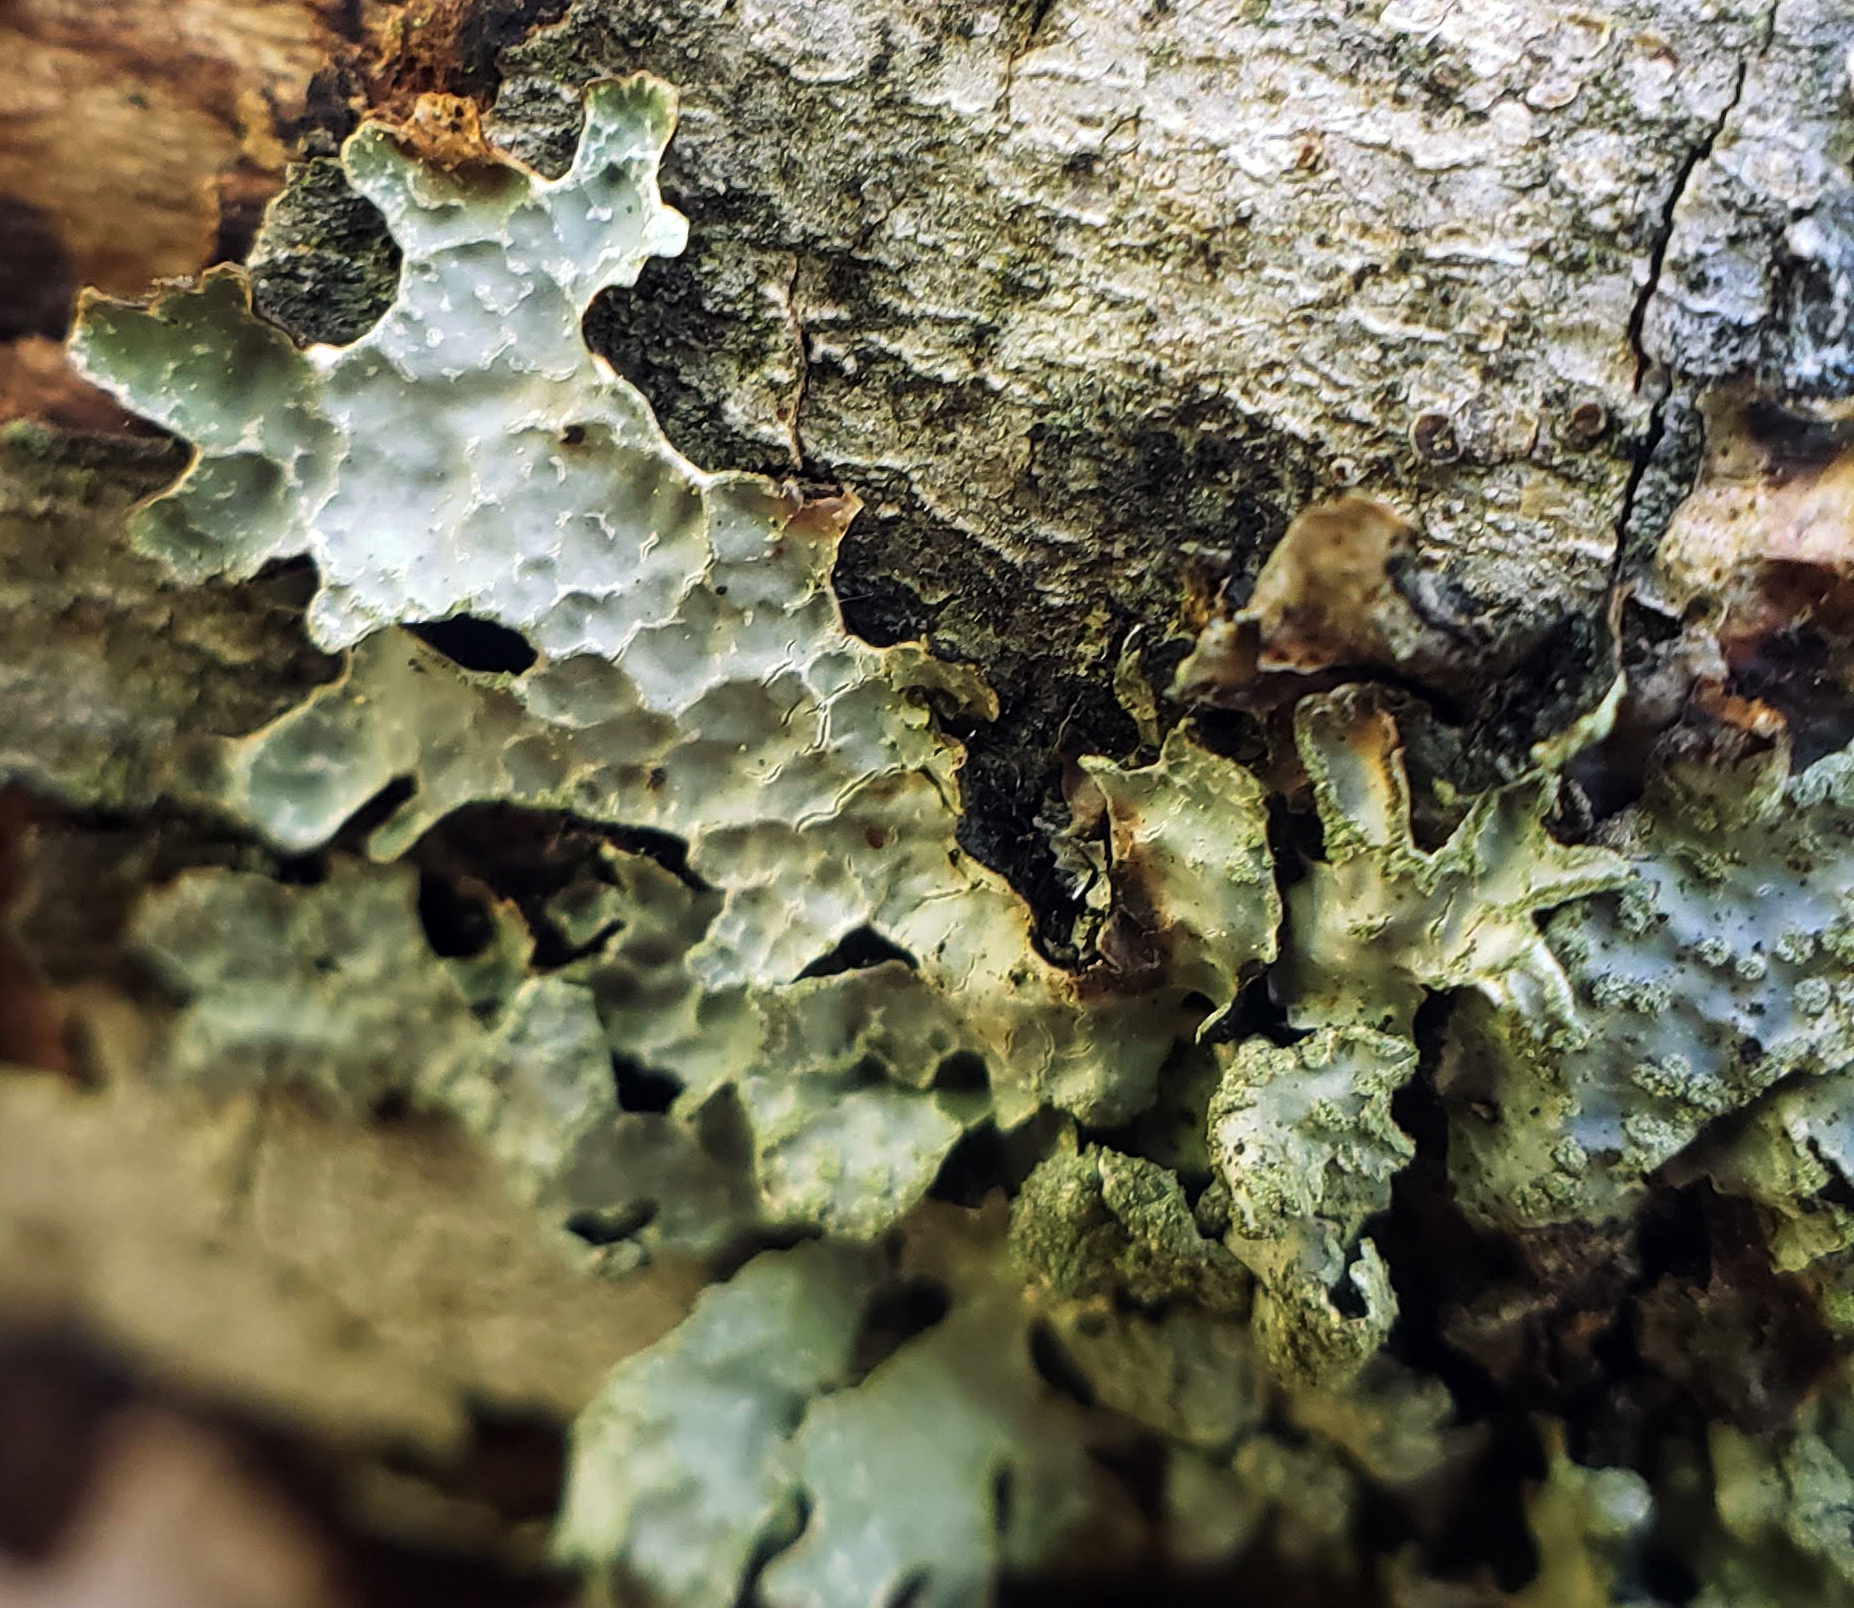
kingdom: Fungi
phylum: Ascomycota
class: Lecanoromycetes
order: Lecanorales
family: Parmeliaceae
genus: Parmelia
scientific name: Parmelia sulcata
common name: Netted shield lichen
